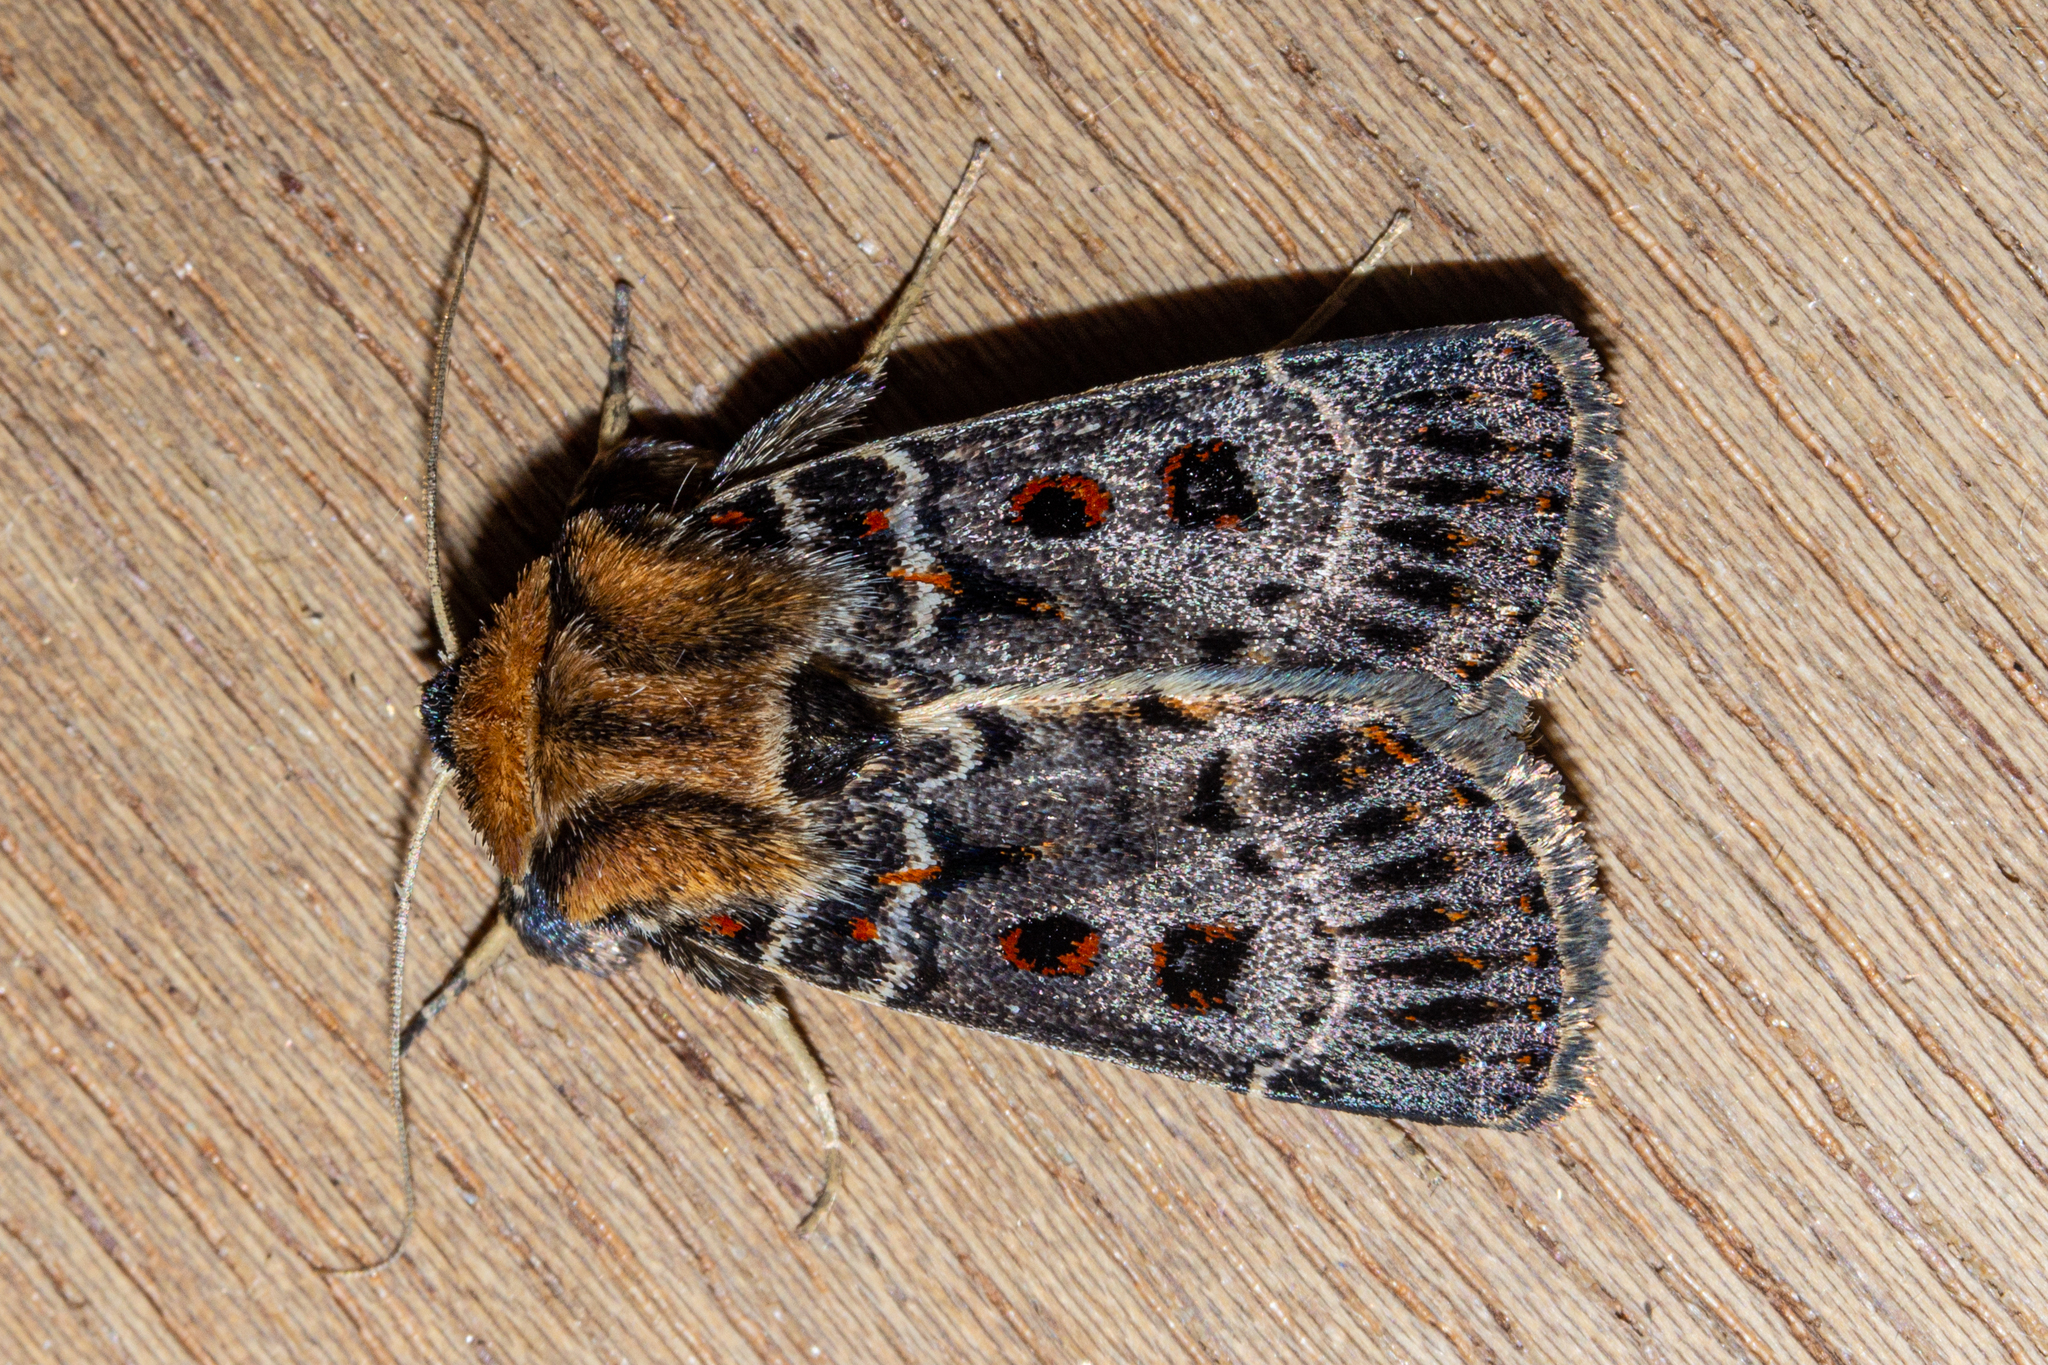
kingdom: Animalia
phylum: Arthropoda
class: Insecta
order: Lepidoptera
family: Noctuidae
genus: Proteuxoa
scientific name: Proteuxoa sanguinipuncta
